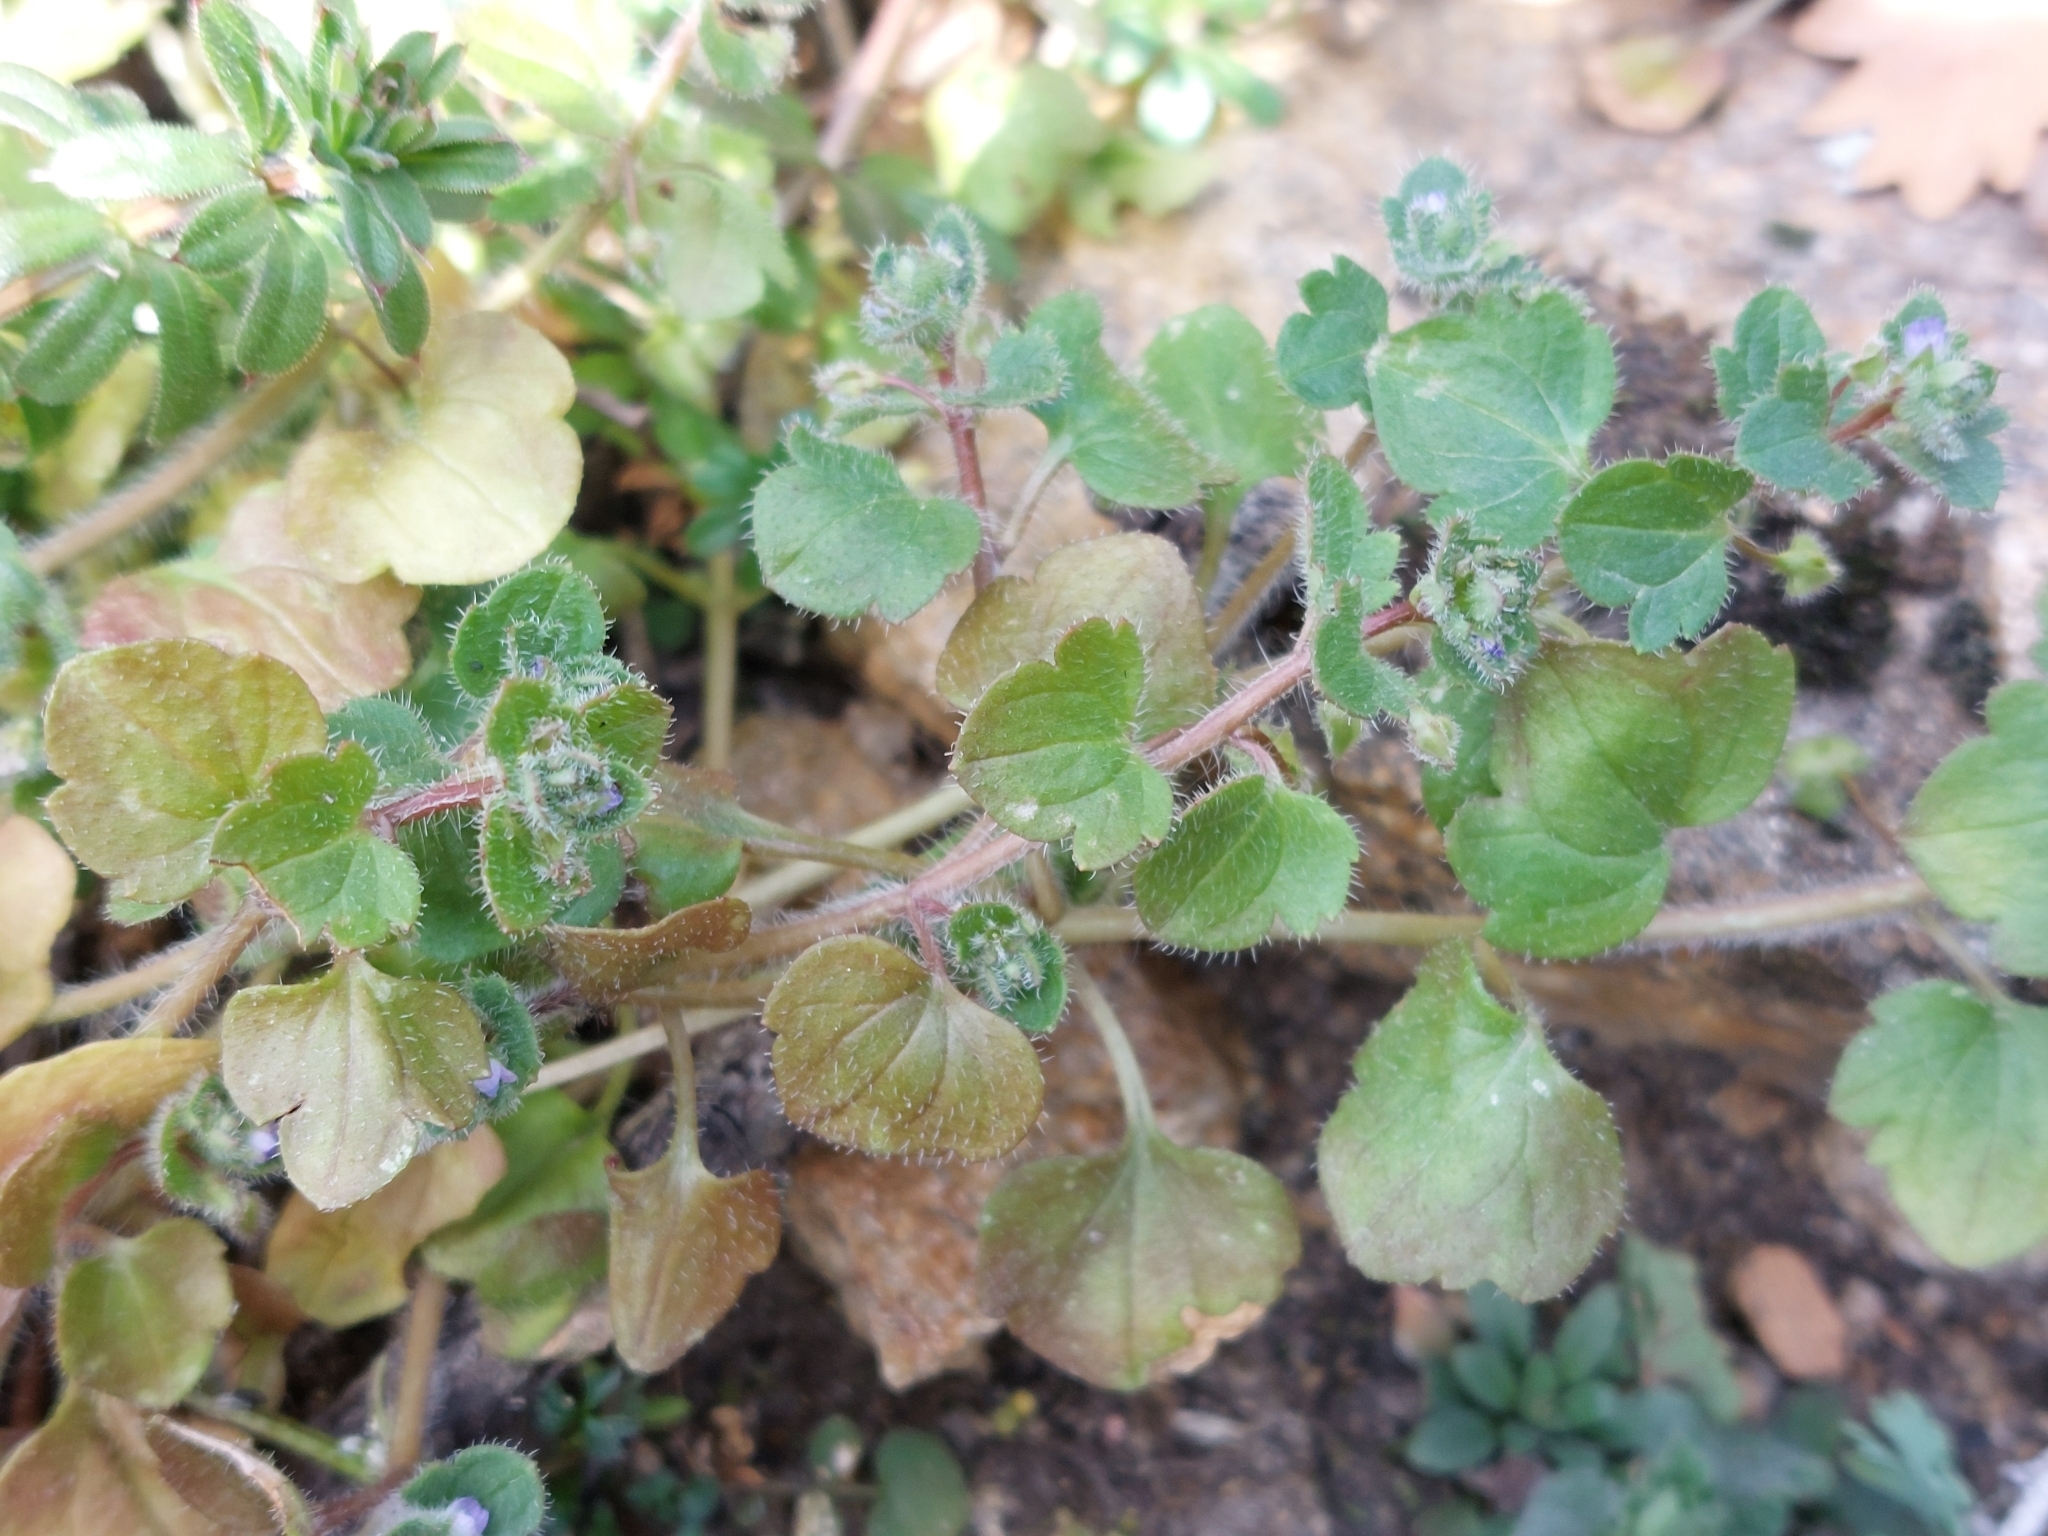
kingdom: Plantae
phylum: Tracheophyta
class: Magnoliopsida
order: Lamiales
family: Plantaginaceae
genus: Veronica
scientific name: Veronica hederifolia
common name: Ivy-leaved speedwell
